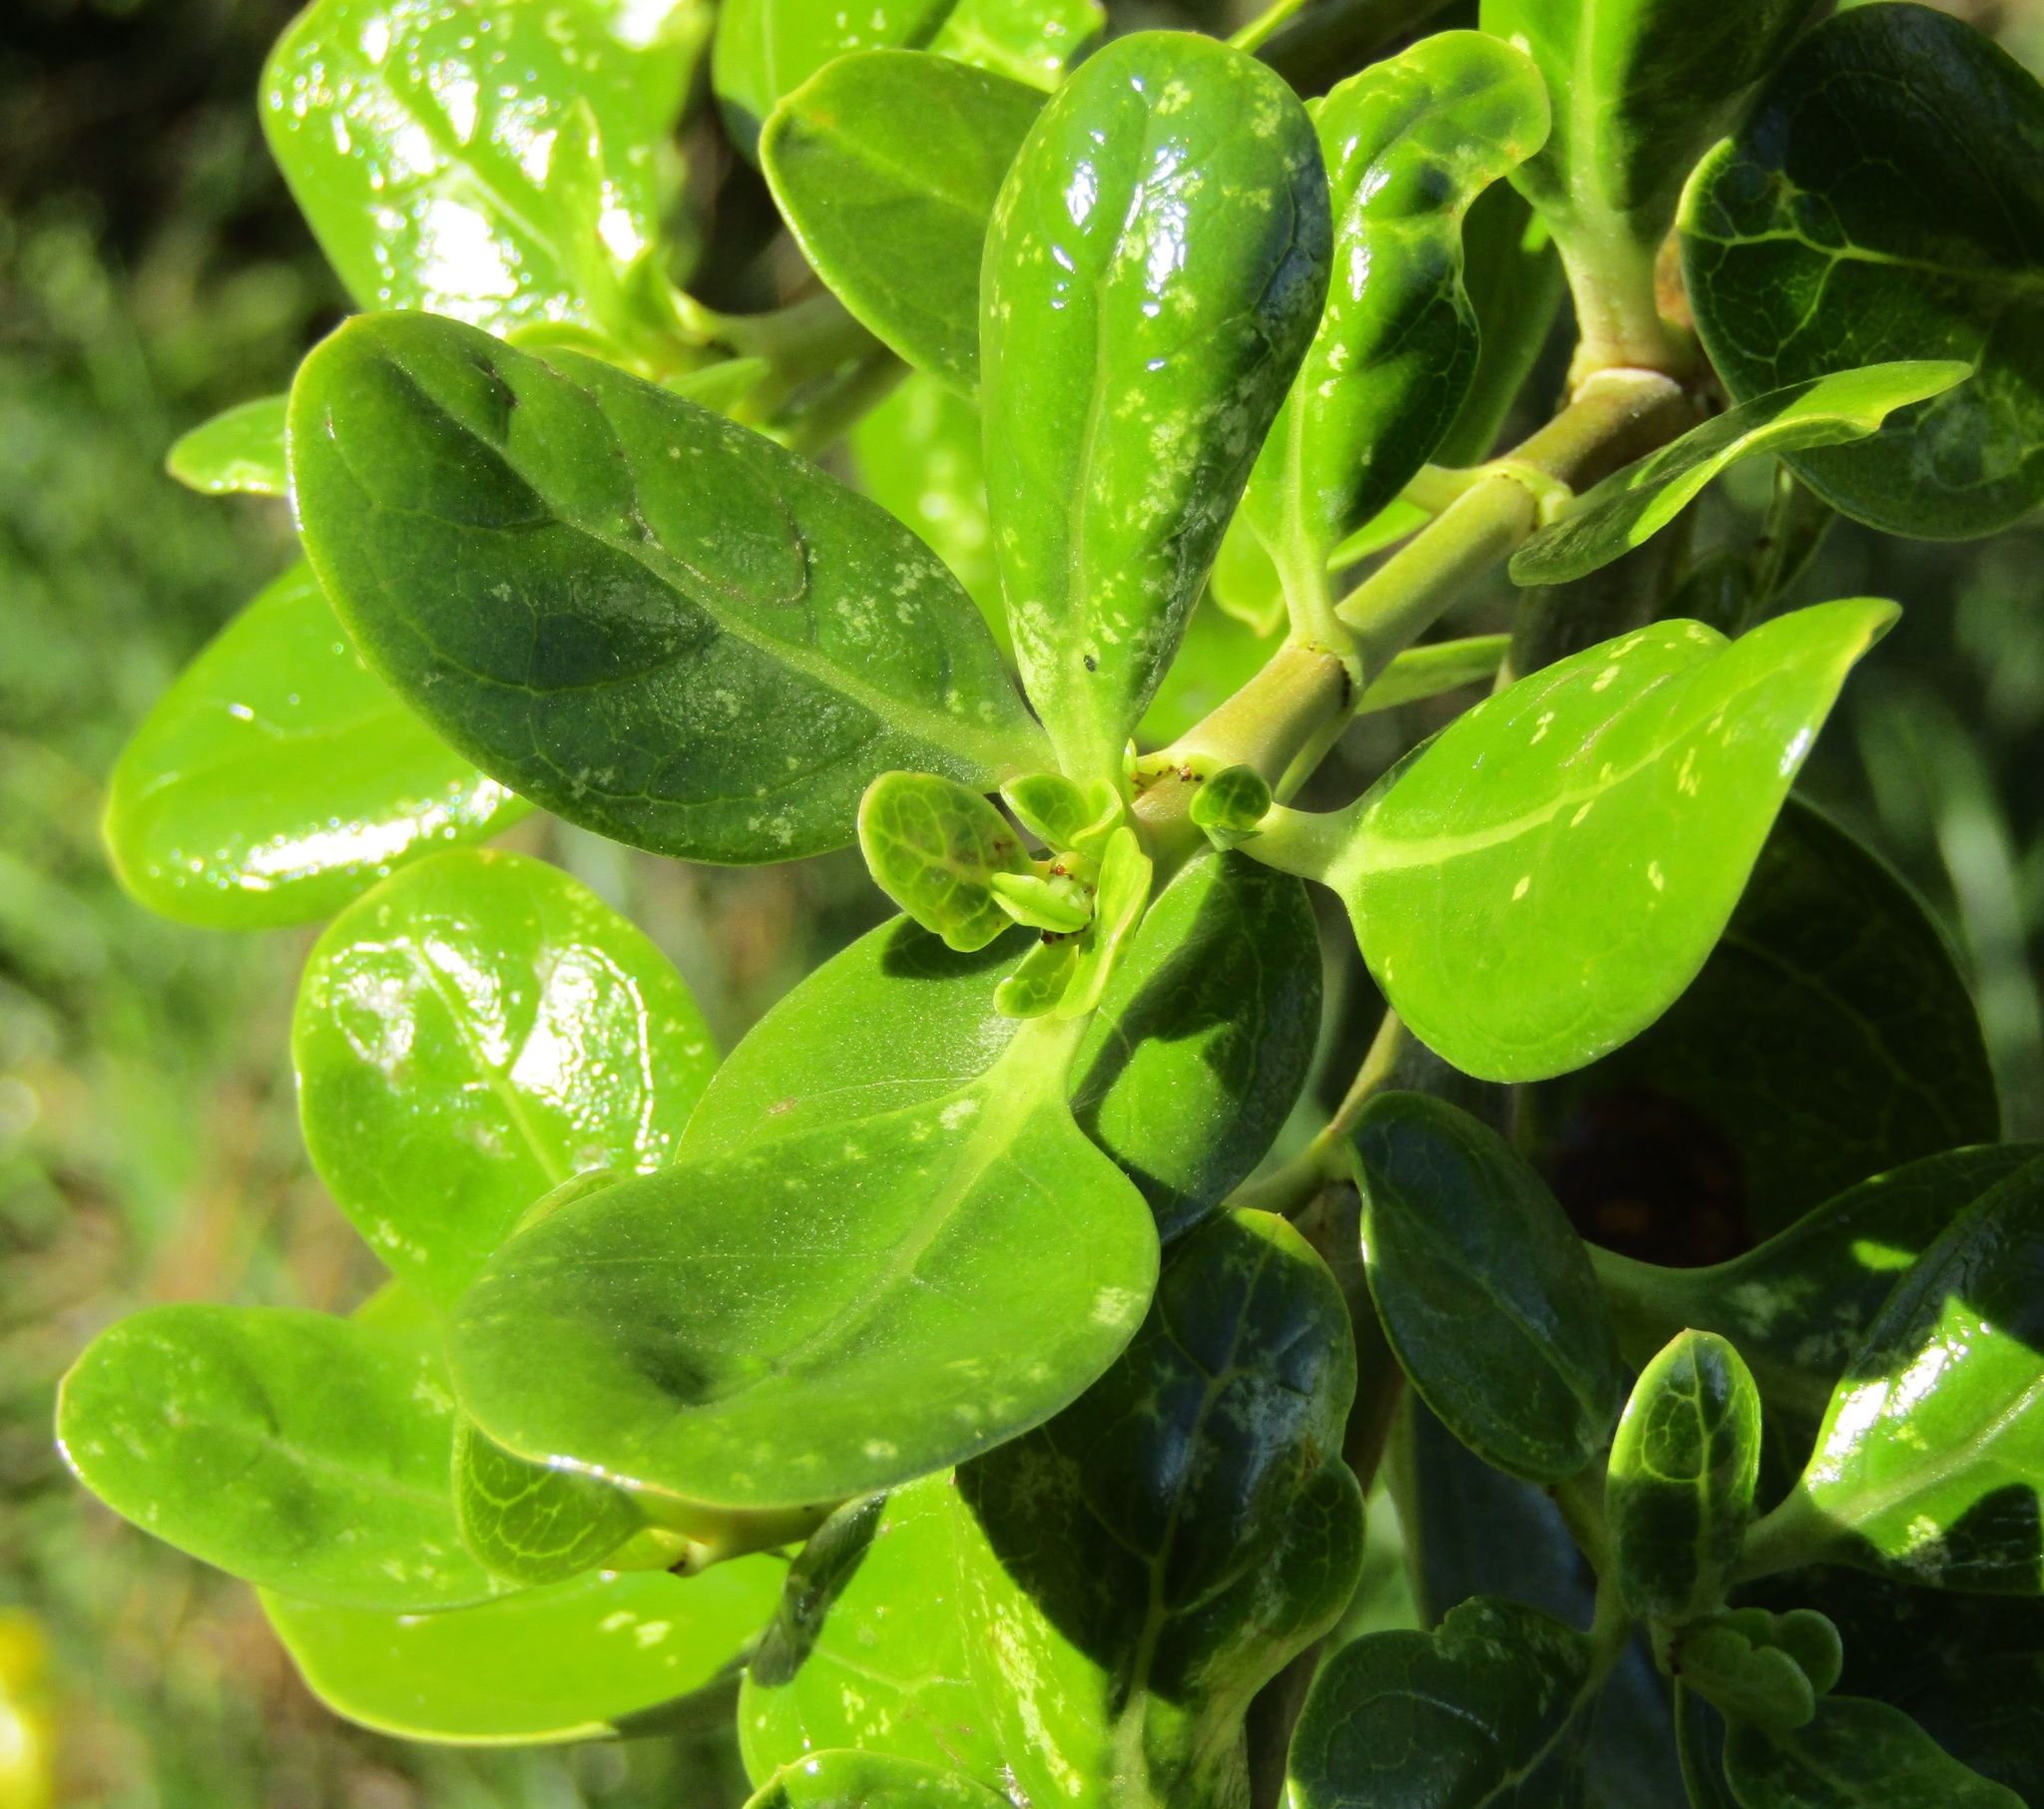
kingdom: Plantae
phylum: Tracheophyta
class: Magnoliopsida
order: Gentianales
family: Rubiaceae
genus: Coprosma
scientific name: Coprosma repens
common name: Tree bedstraw
